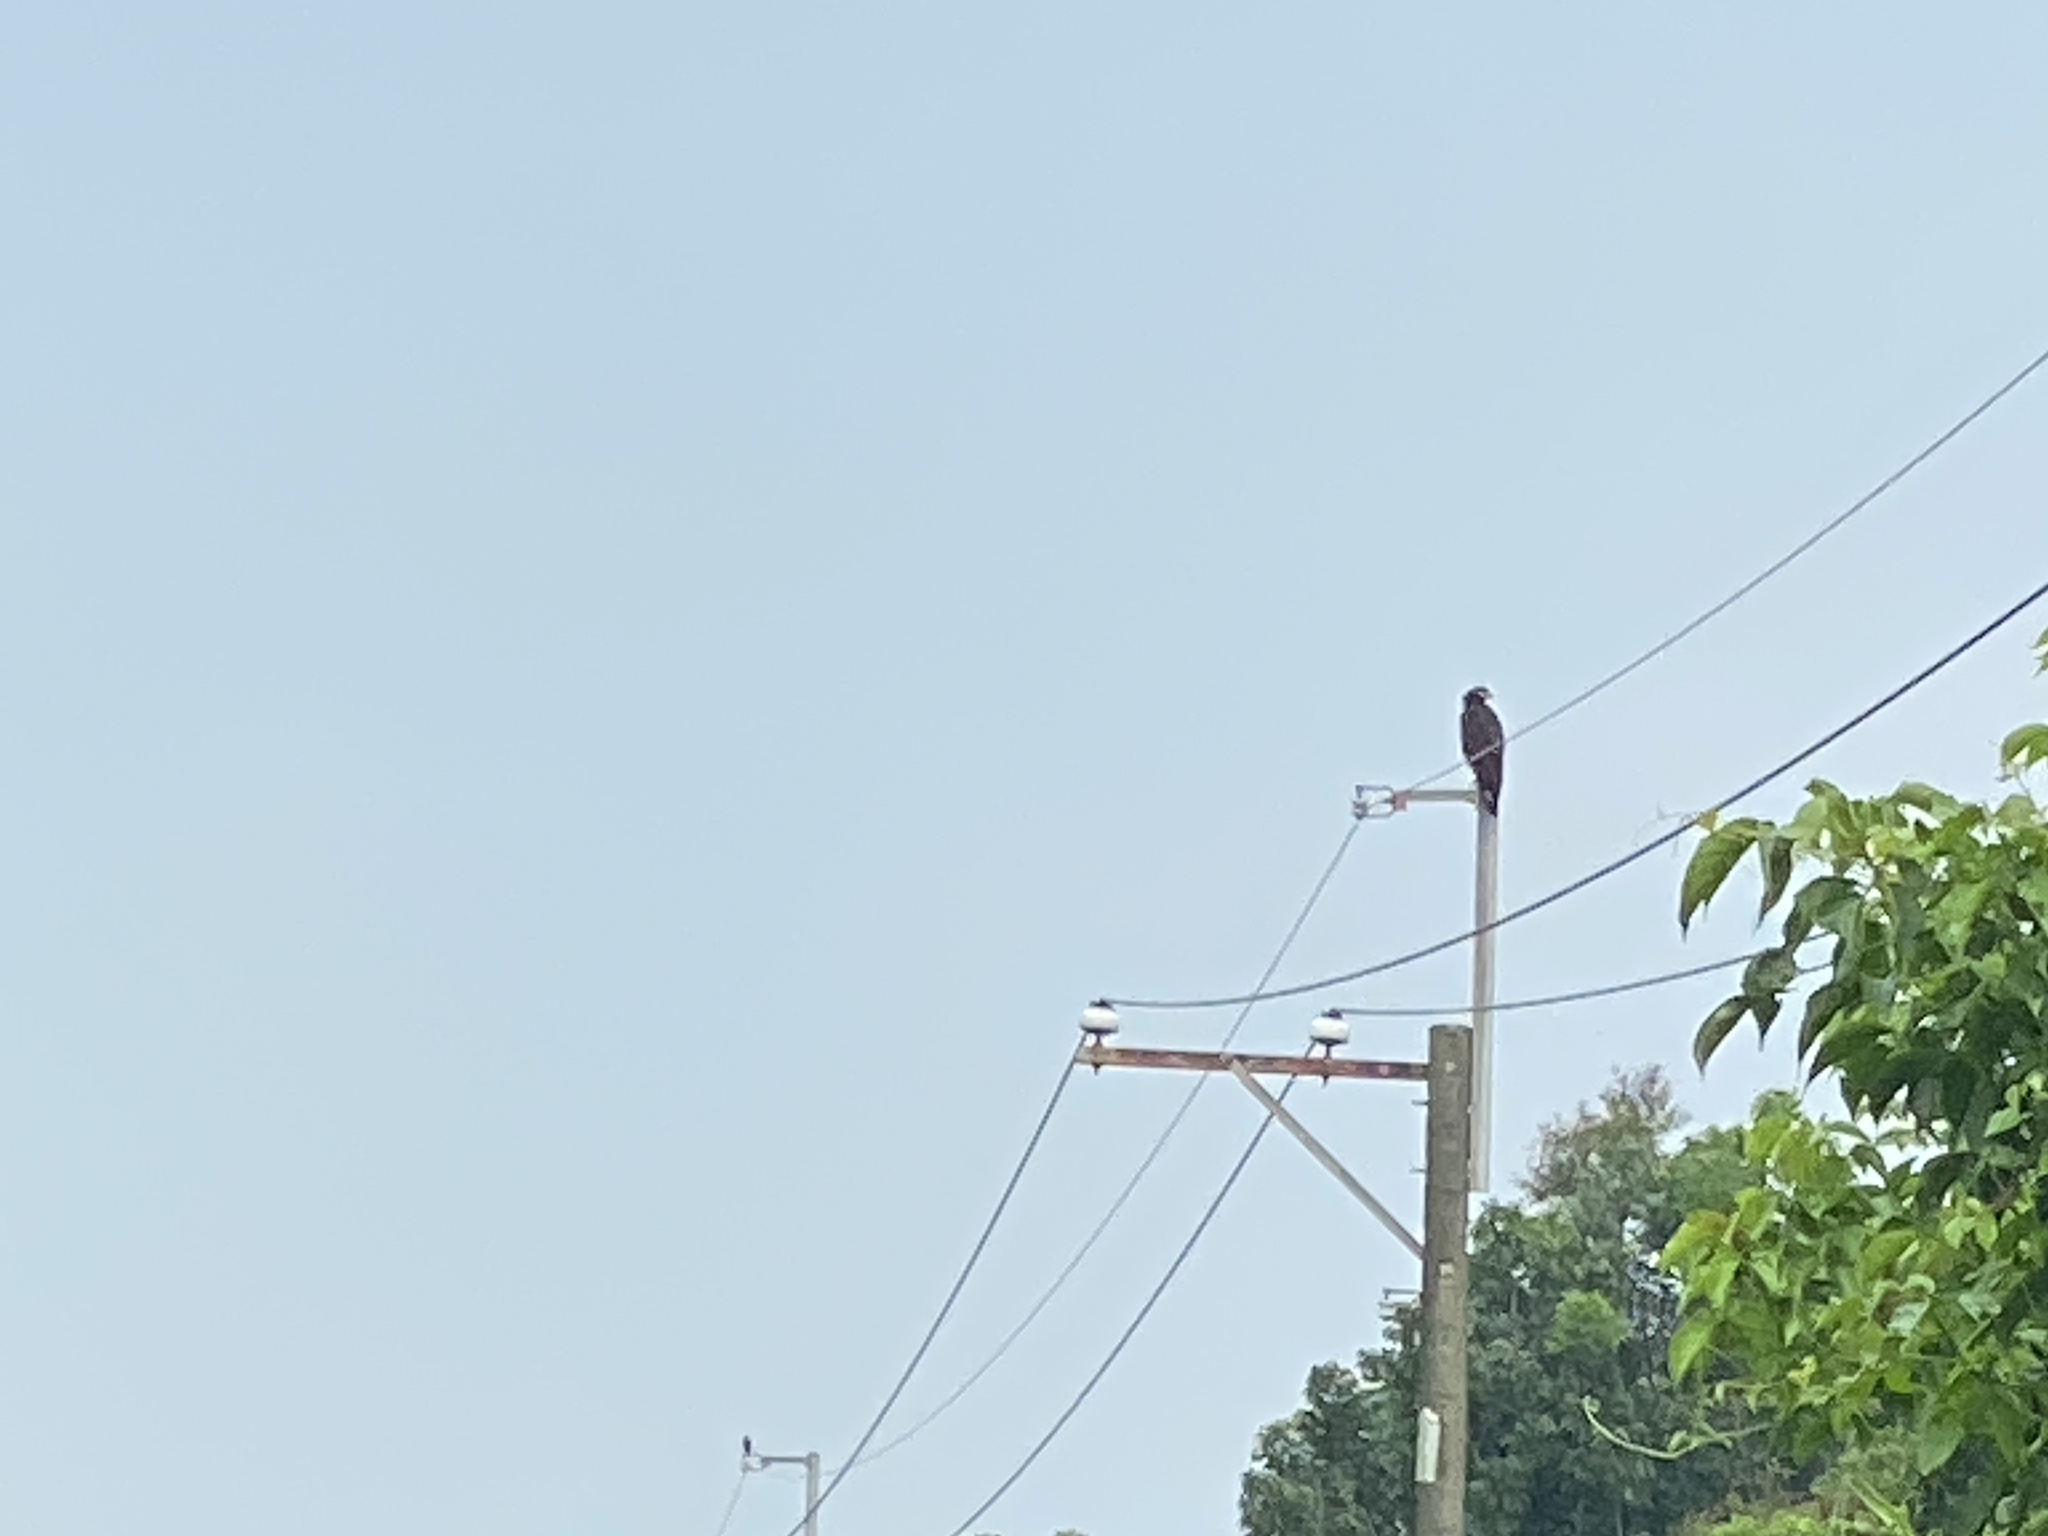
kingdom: Animalia
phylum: Chordata
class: Aves
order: Accipitriformes
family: Accipitridae
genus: Spilornis
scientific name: Spilornis cheela
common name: Crested serpent eagle
